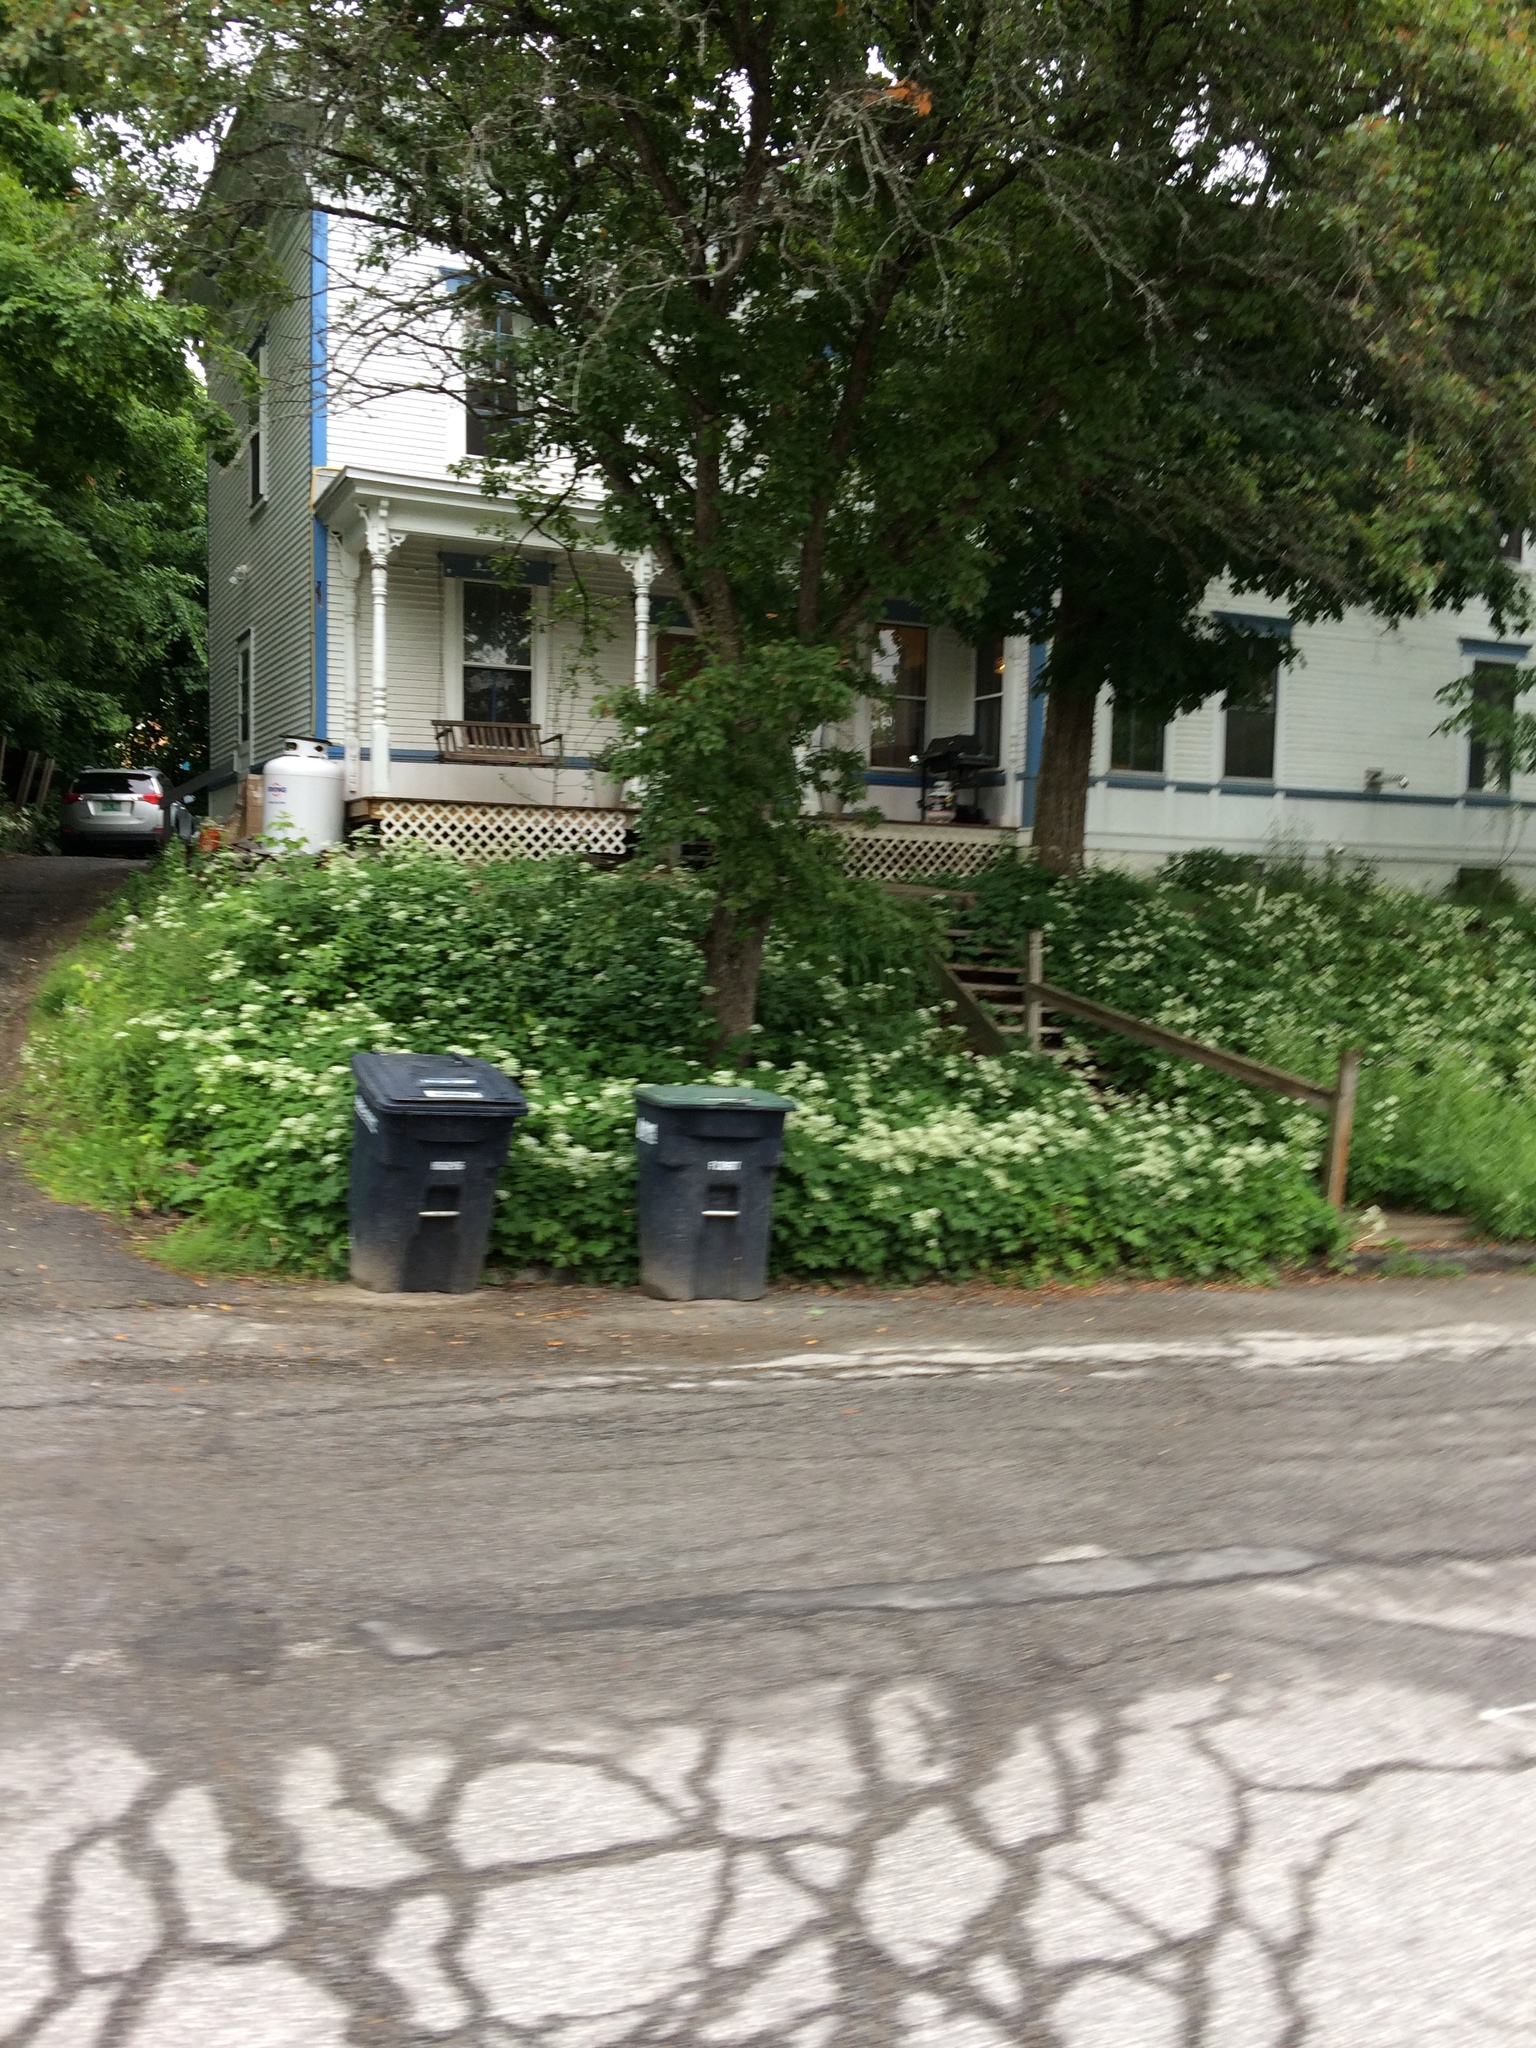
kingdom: Plantae
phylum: Tracheophyta
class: Magnoliopsida
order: Apiales
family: Apiaceae
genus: Aegopodium
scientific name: Aegopodium podagraria
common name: Ground-elder
